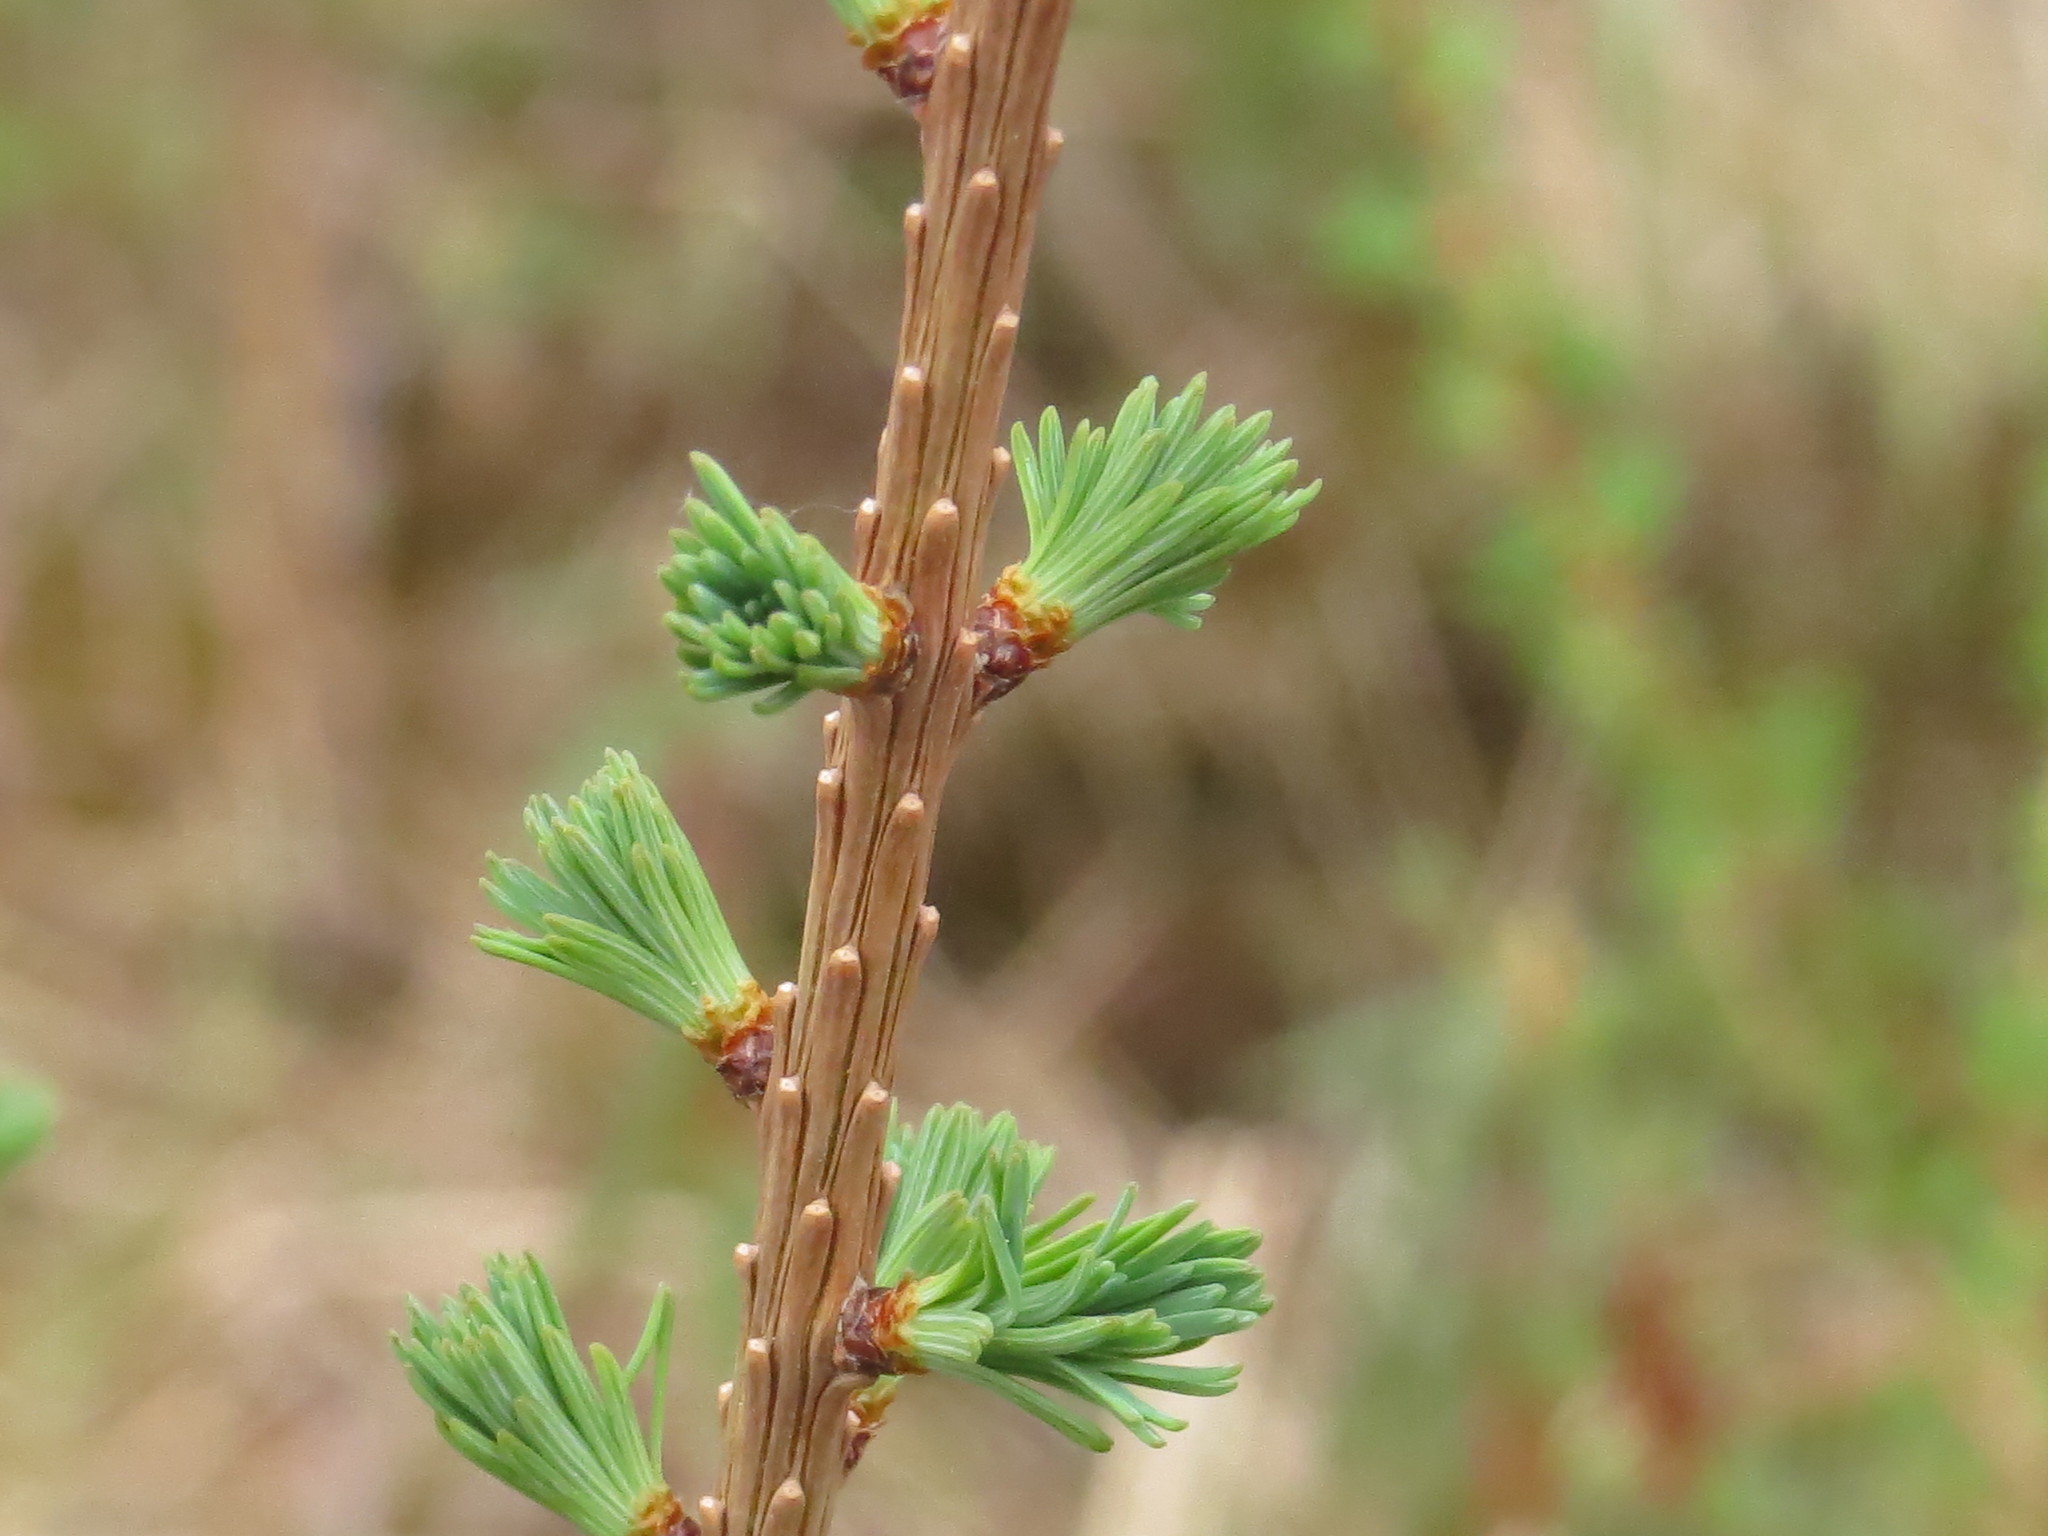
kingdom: Plantae
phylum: Tracheophyta
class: Pinopsida
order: Pinales
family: Pinaceae
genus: Larix
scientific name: Larix laricina
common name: American larch
